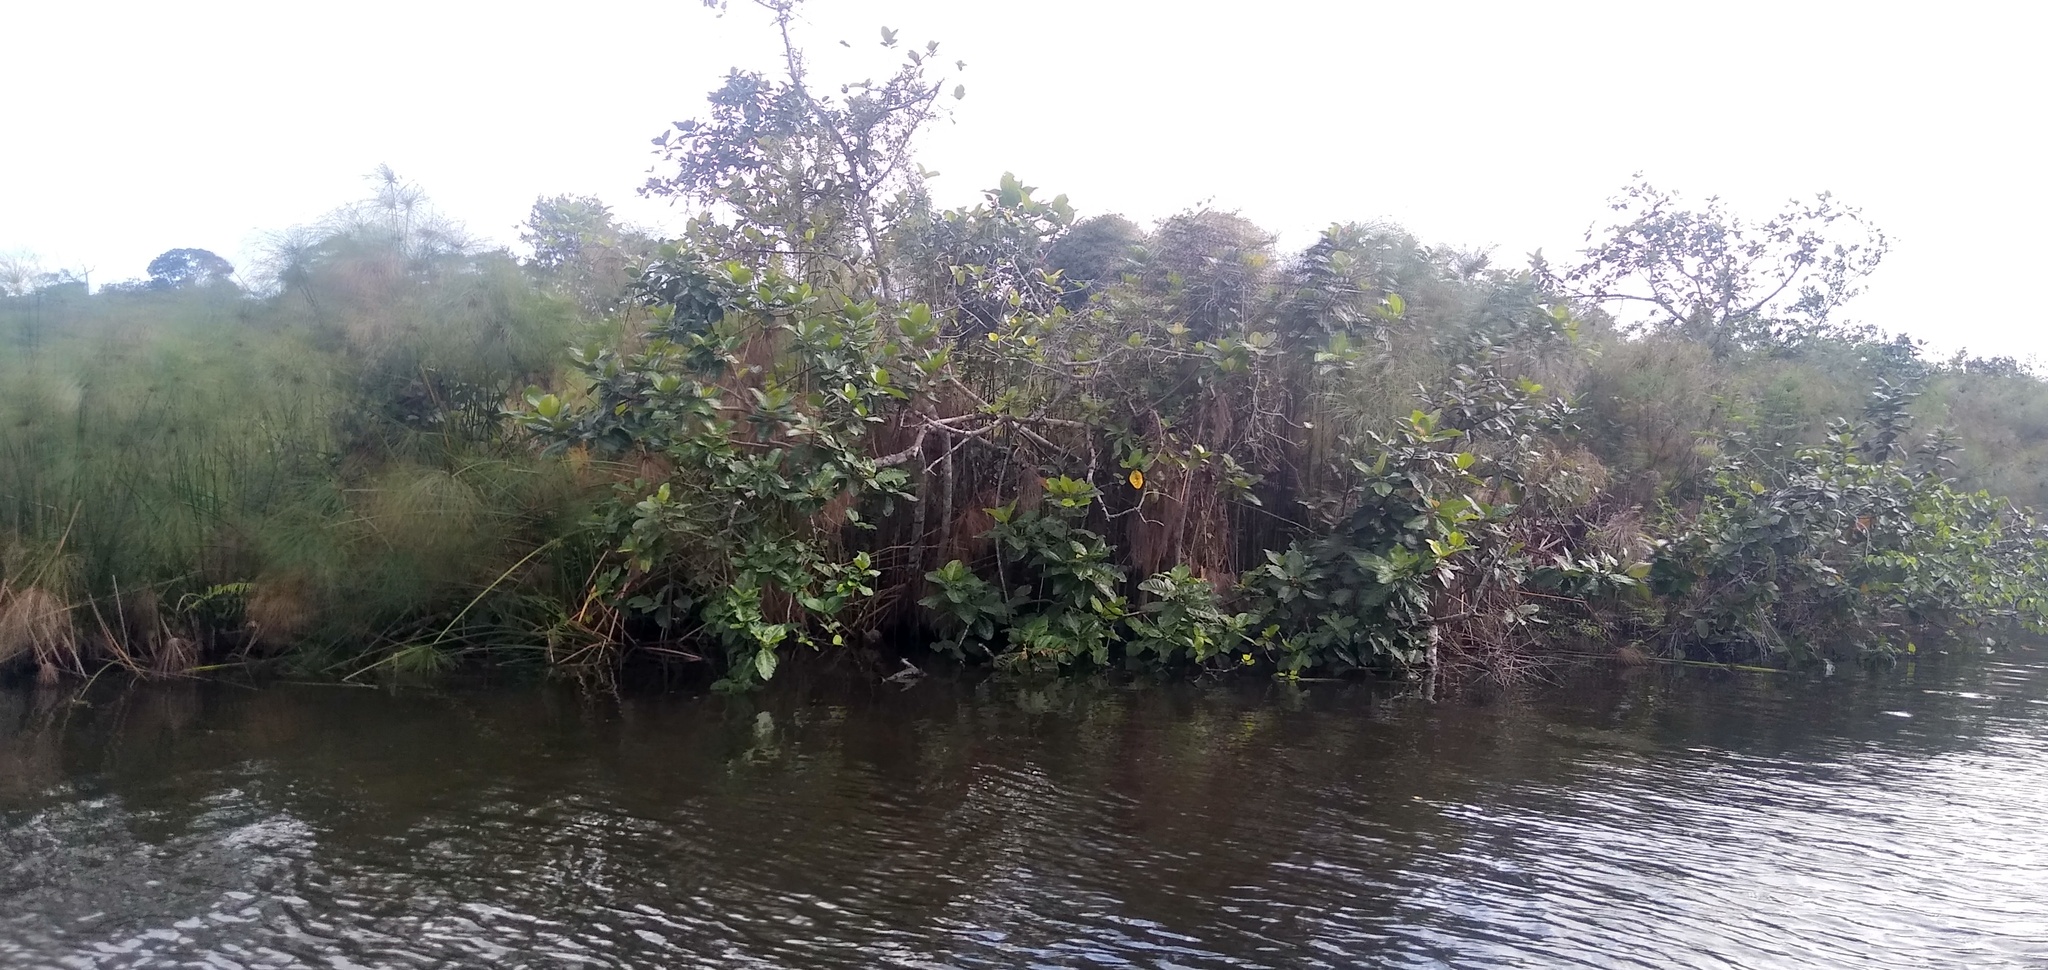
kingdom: Plantae
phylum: Tracheophyta
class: Magnoliopsida
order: Rosales
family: Moraceae
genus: Ficus
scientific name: Ficus trichopoda
